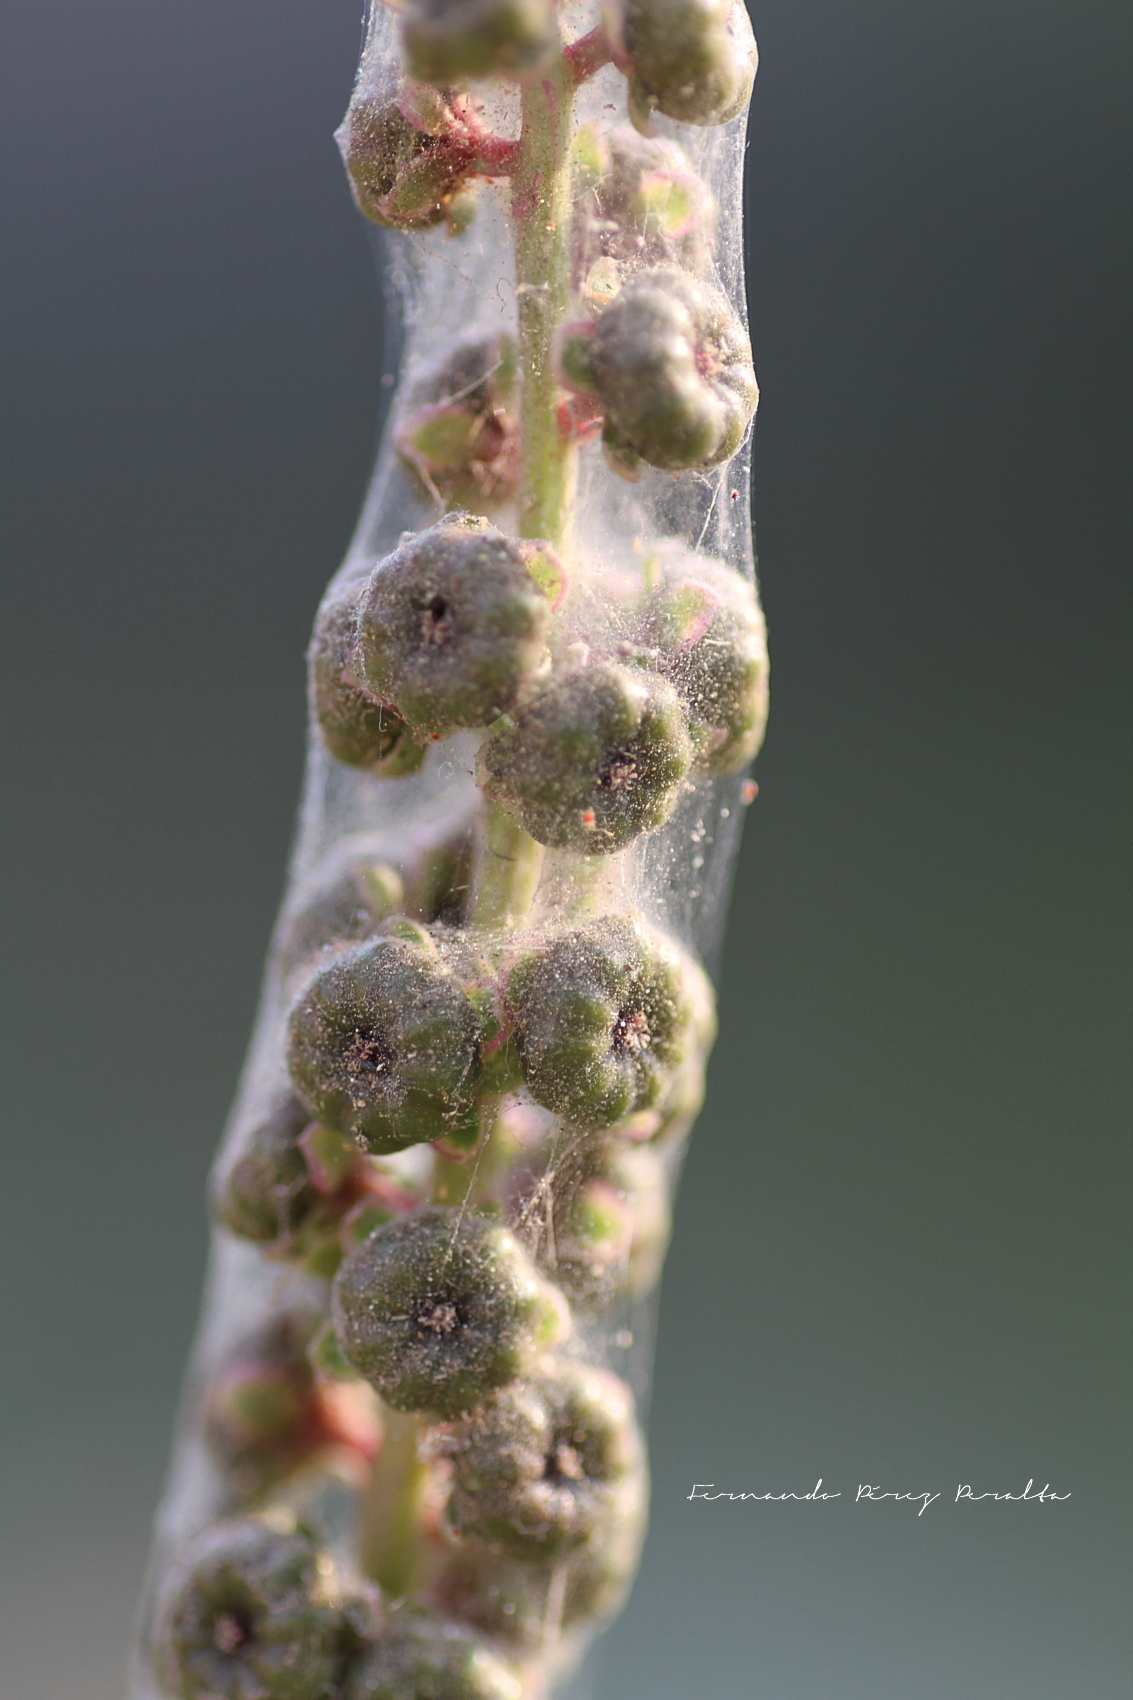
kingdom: Plantae
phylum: Tracheophyta
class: Magnoliopsida
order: Caryophyllales
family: Phytolaccaceae
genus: Phytolacca
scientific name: Phytolacca icosandra
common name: Button pokeweed
